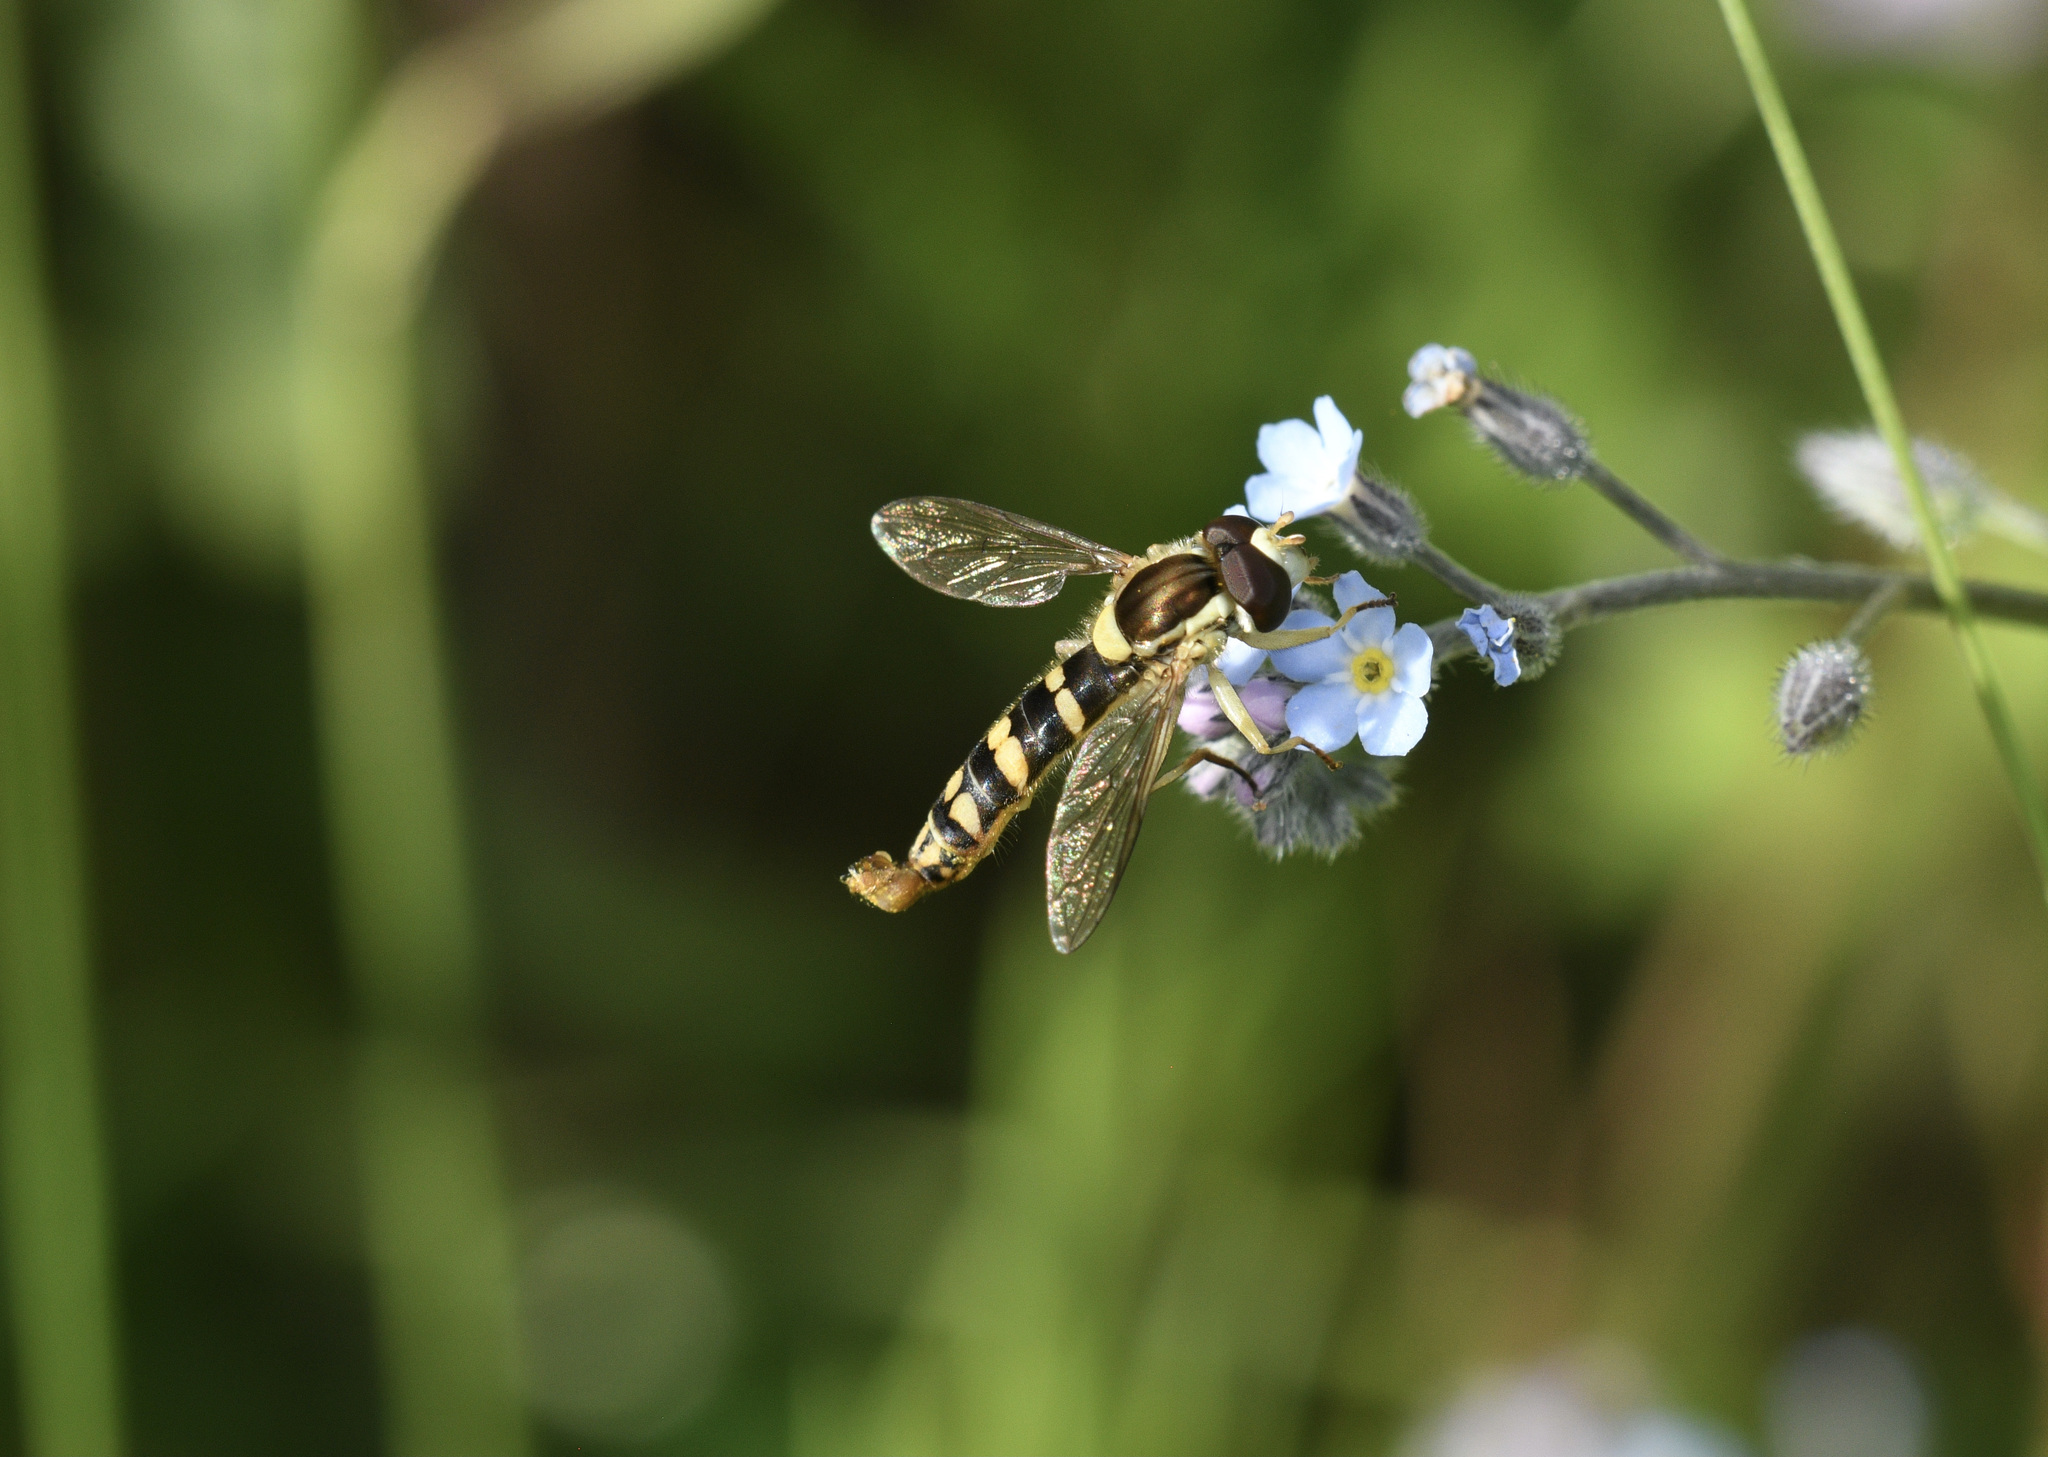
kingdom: Animalia
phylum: Arthropoda
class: Insecta
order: Diptera
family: Syrphidae
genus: Sphaerophoria
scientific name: Sphaerophoria
